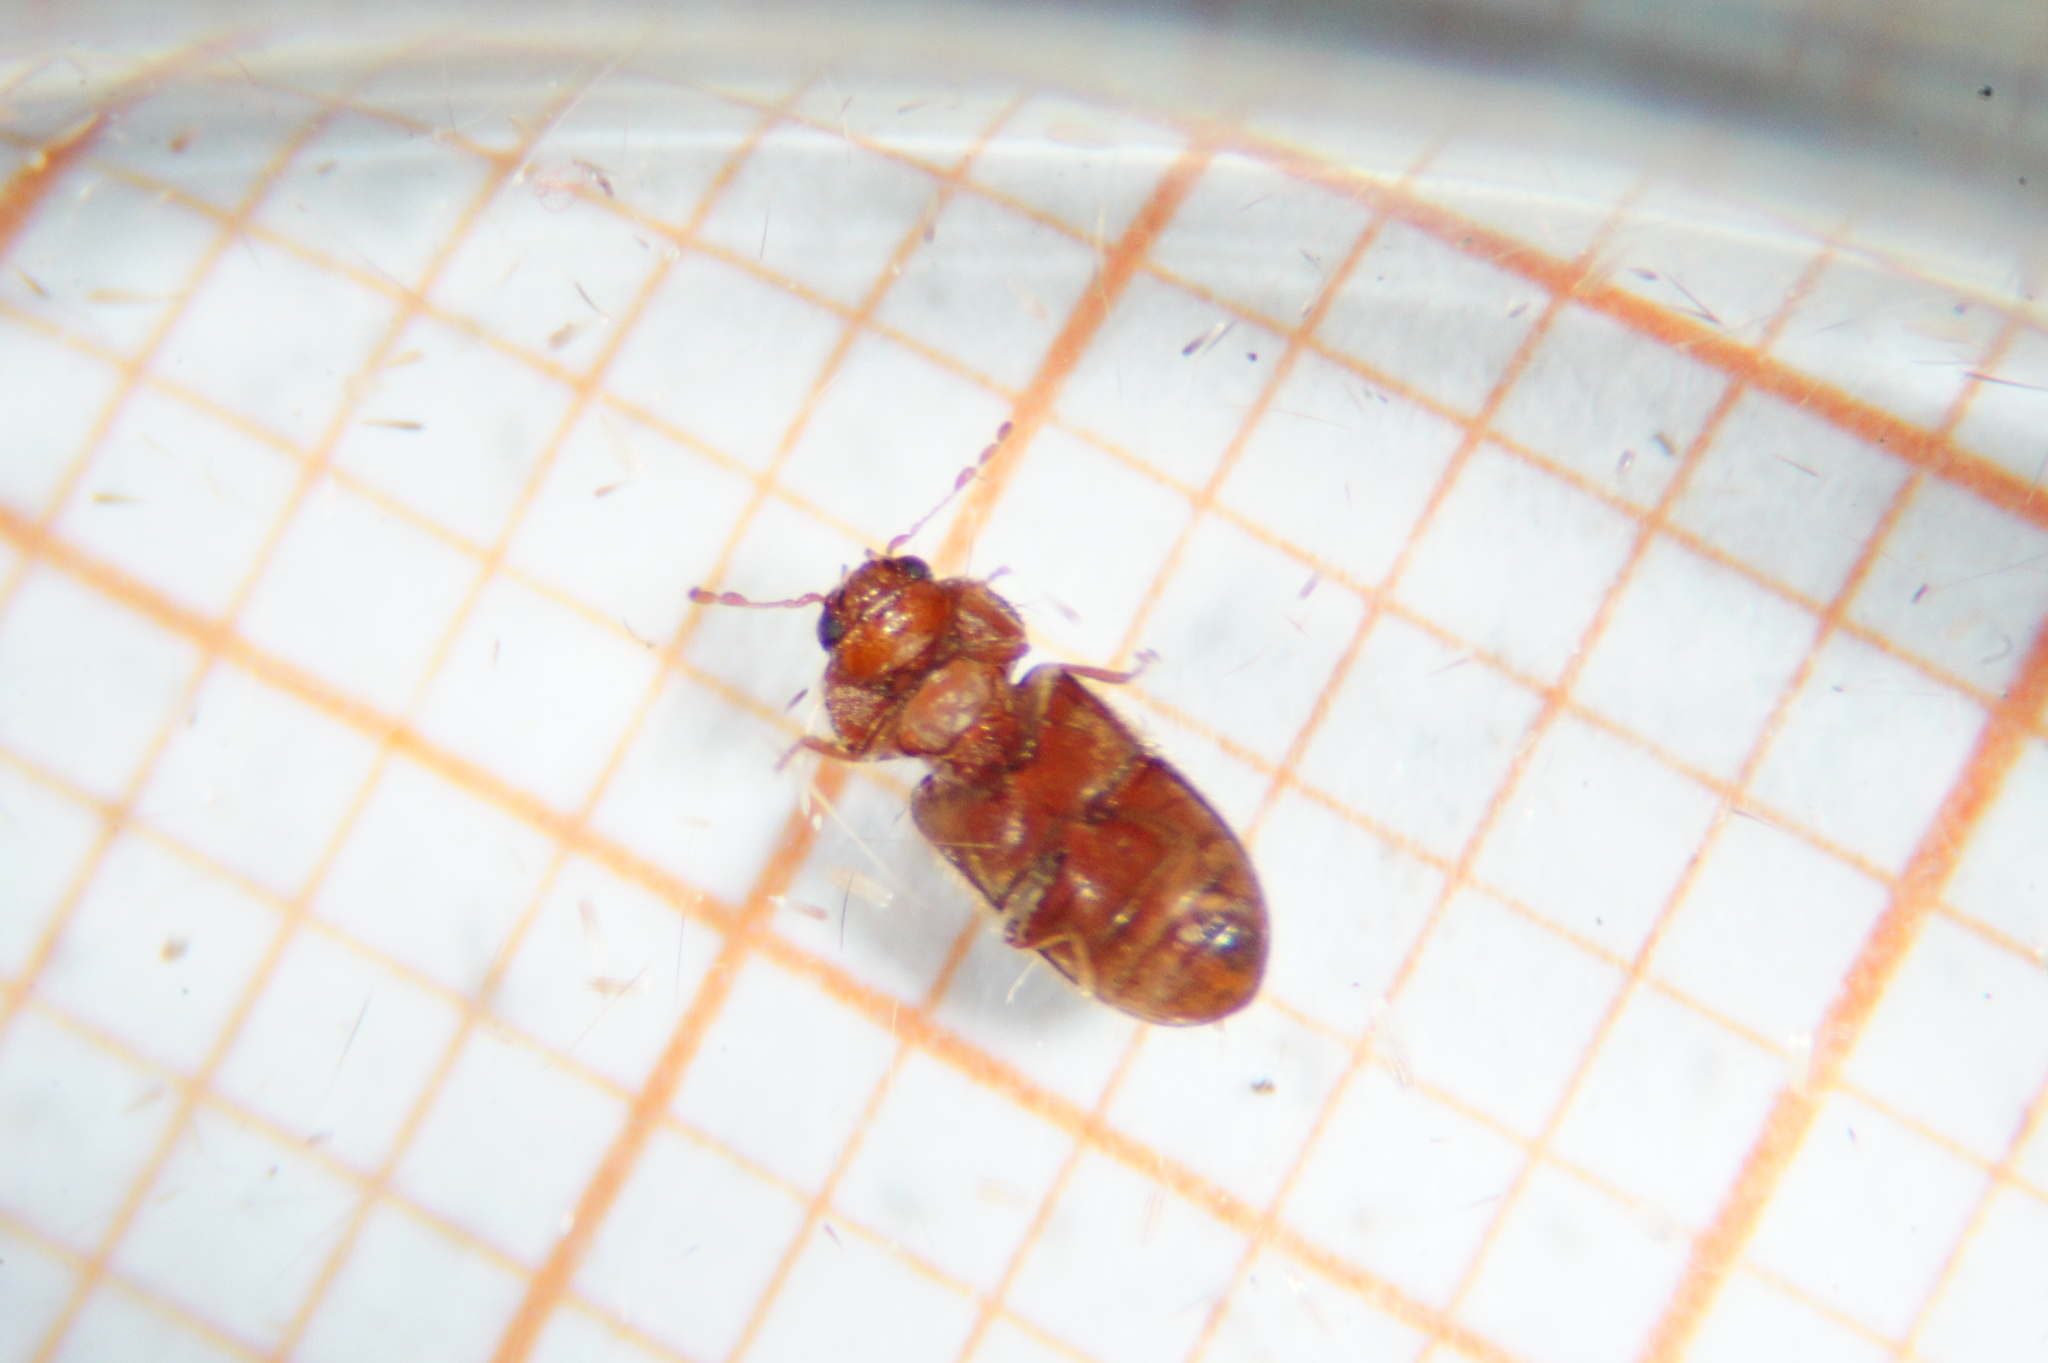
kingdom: Animalia
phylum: Arthropoda
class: Insecta
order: Coleoptera
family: Anobiidae
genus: Stegobium
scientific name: Stegobium paniceum
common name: Drugstore beetle
